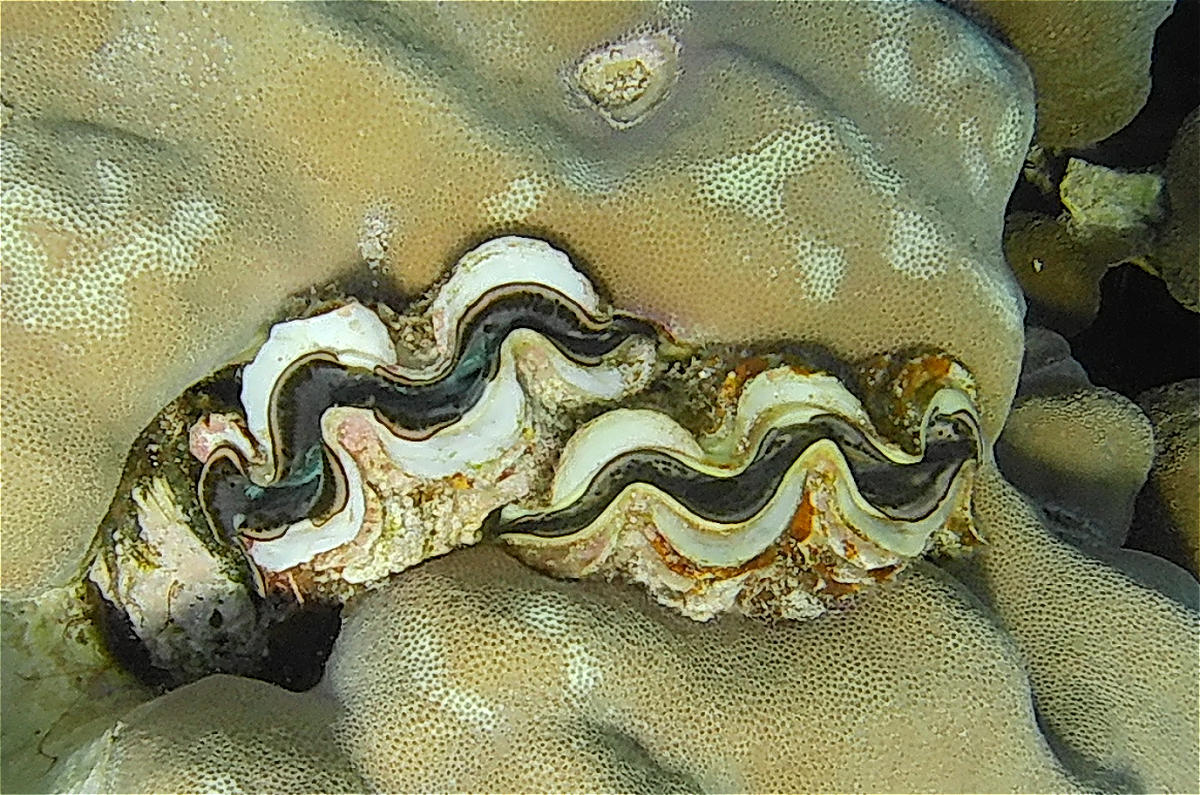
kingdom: Animalia
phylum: Mollusca
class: Bivalvia
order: Cardiida
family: Cardiidae
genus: Tridacna
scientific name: Tridacna maxima
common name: Small giant clam
